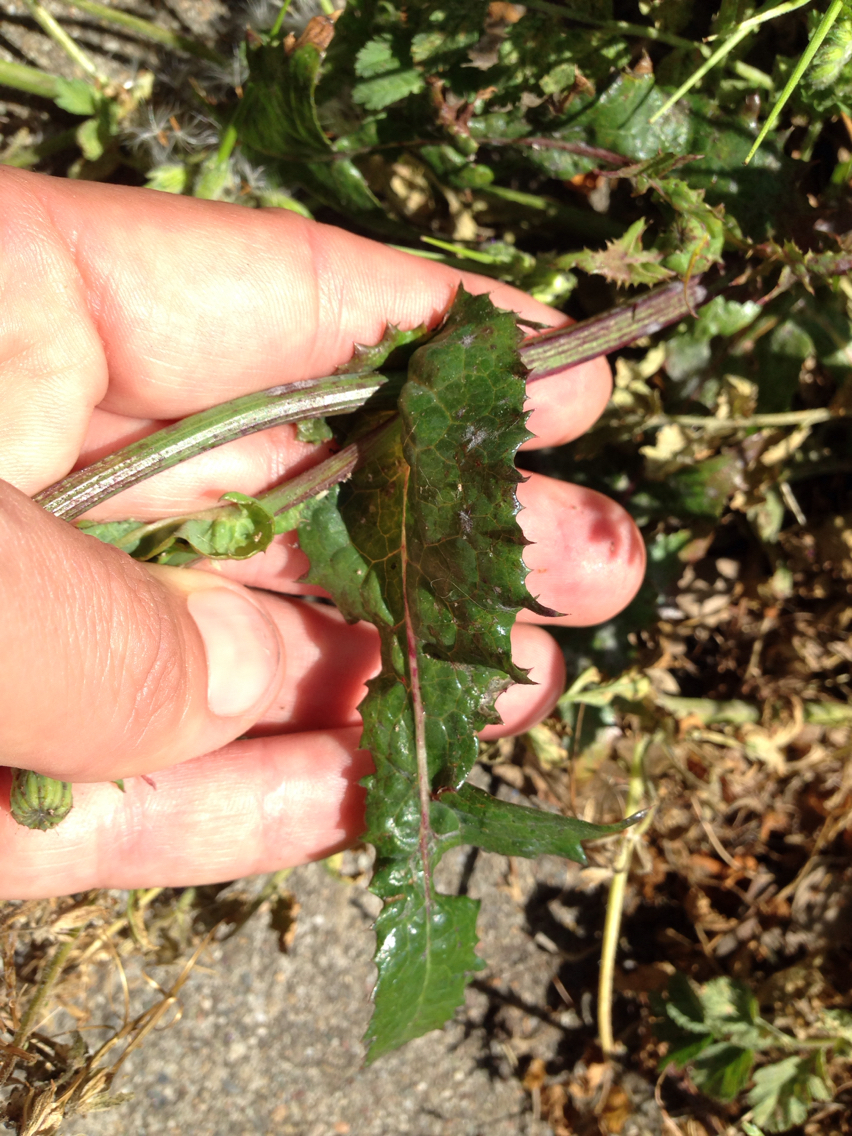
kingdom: Plantae
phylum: Tracheophyta
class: Magnoliopsida
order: Asterales
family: Asteraceae
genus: Sonchus
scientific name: Sonchus oleraceus
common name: Common sowthistle
